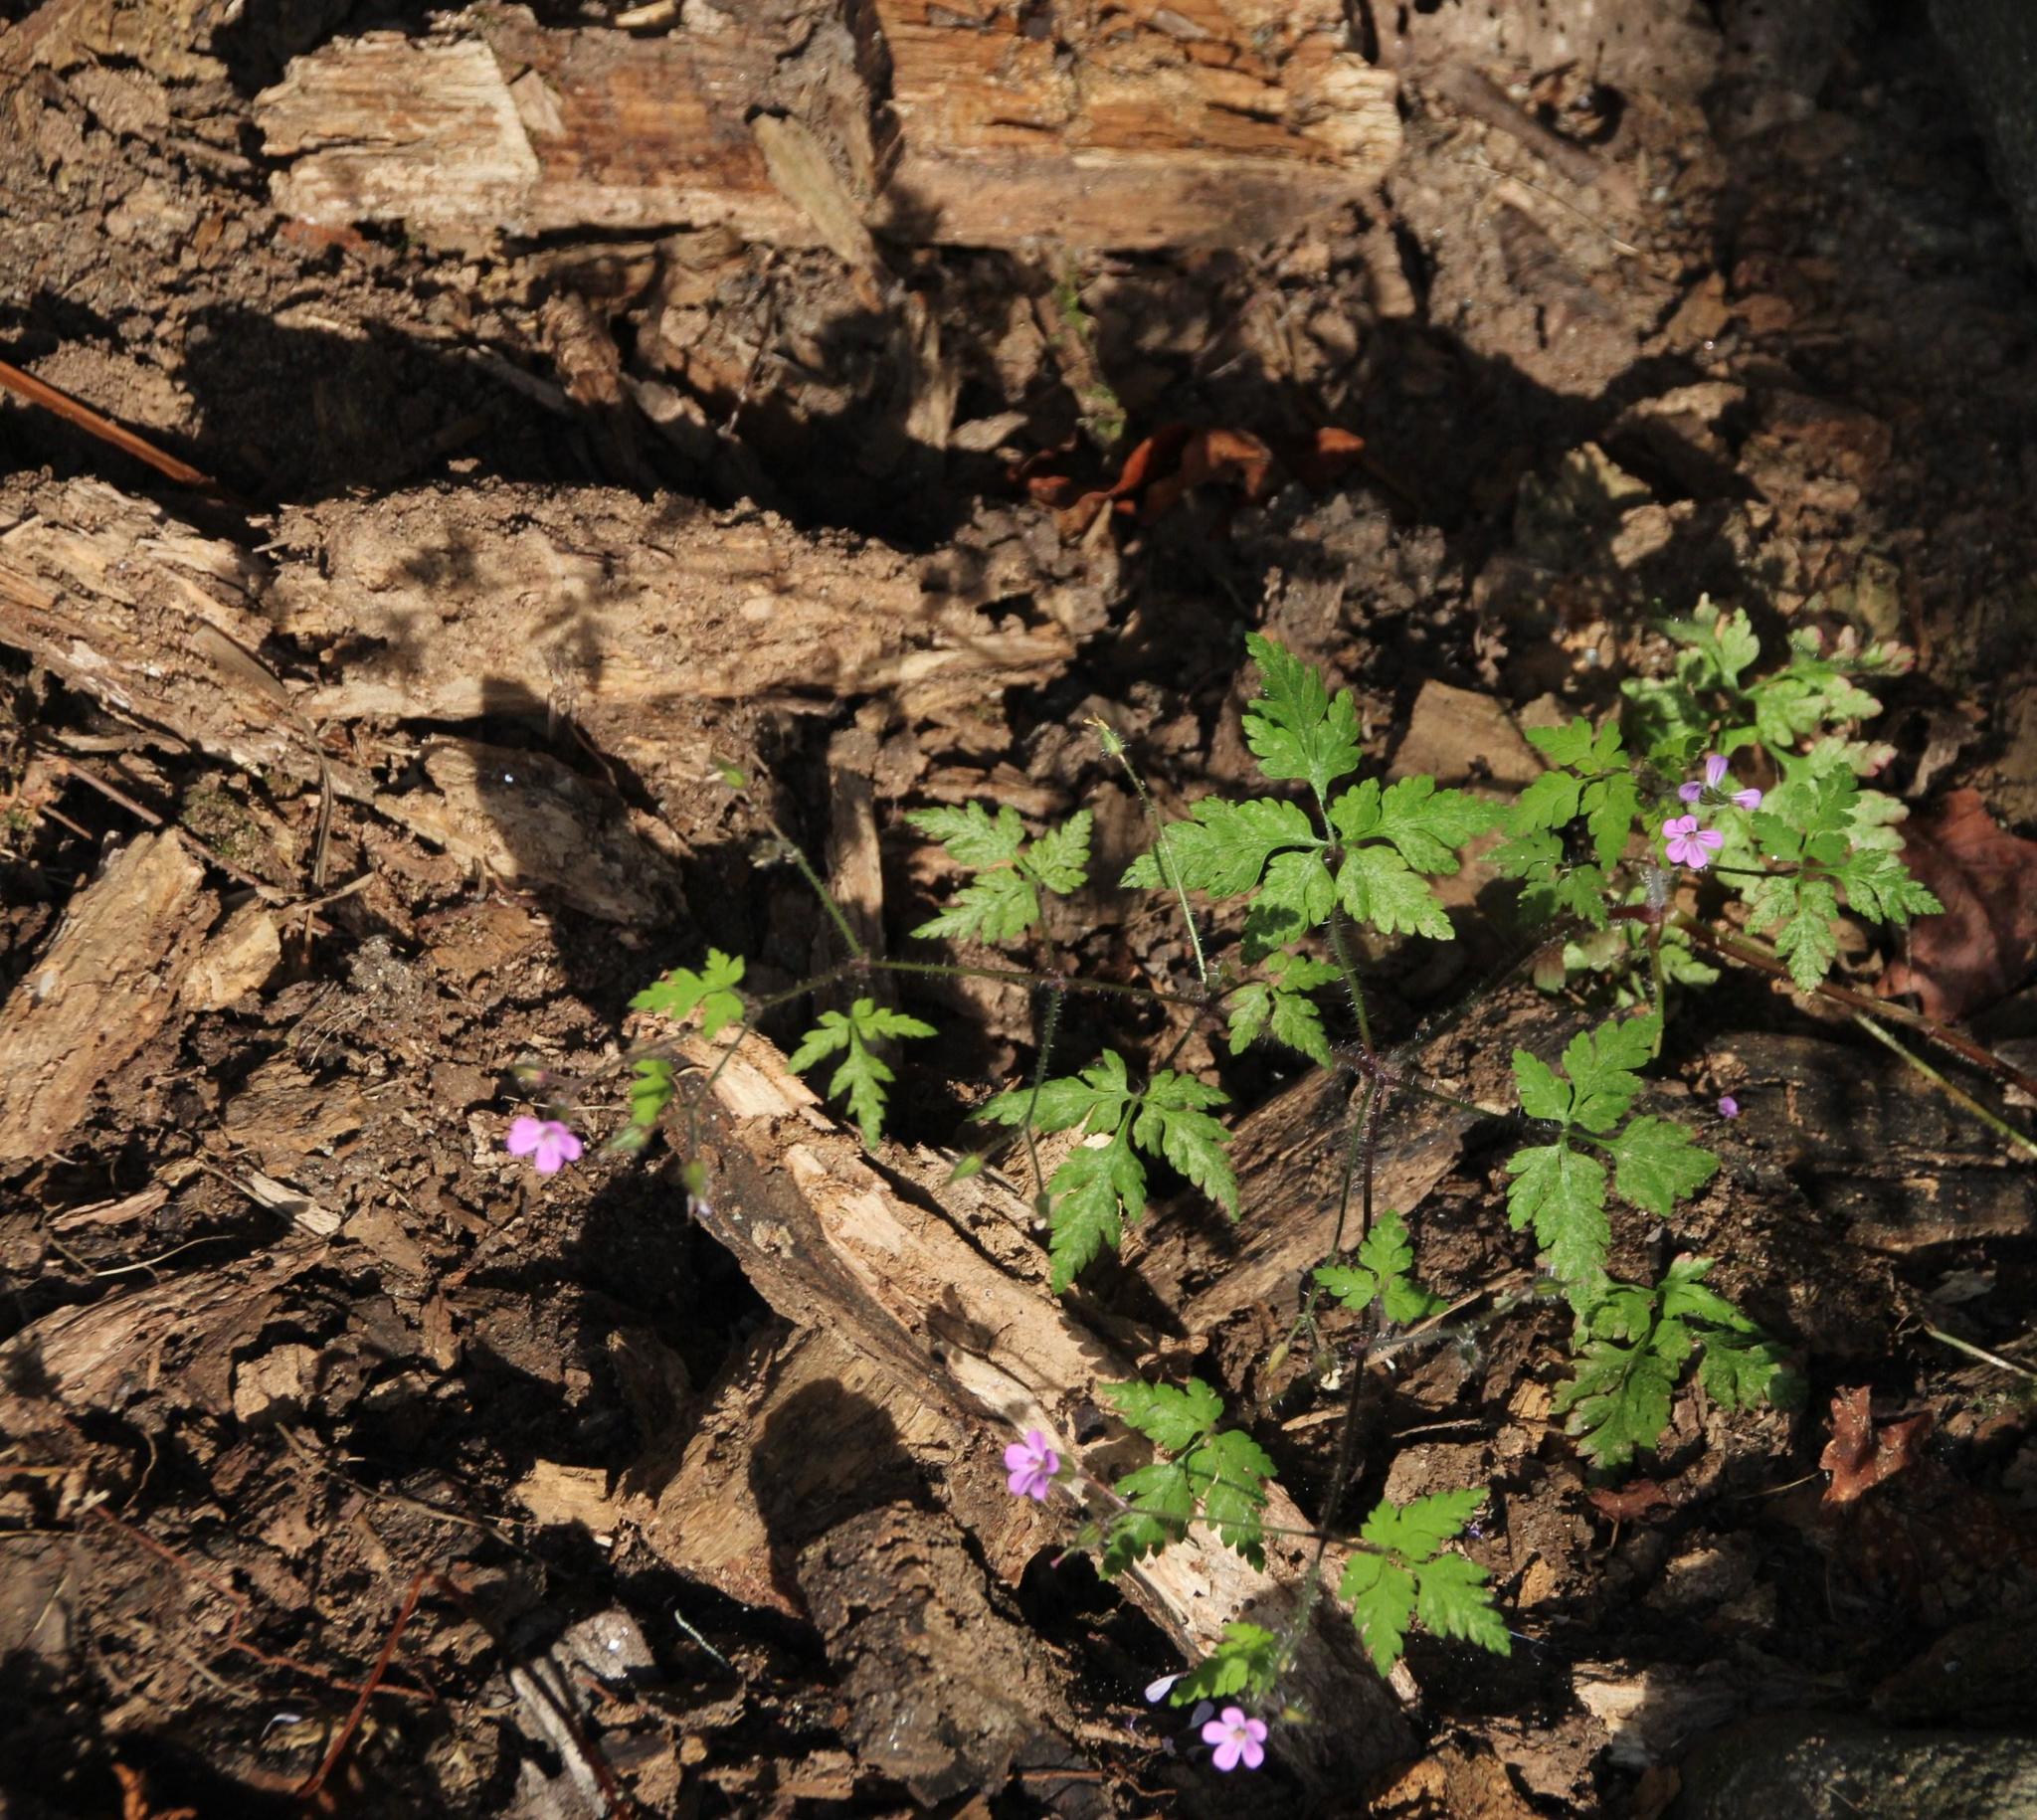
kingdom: Plantae
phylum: Tracheophyta
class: Magnoliopsida
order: Geraniales
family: Geraniaceae
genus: Geranium
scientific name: Geranium robertianum
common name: Herb-robert
